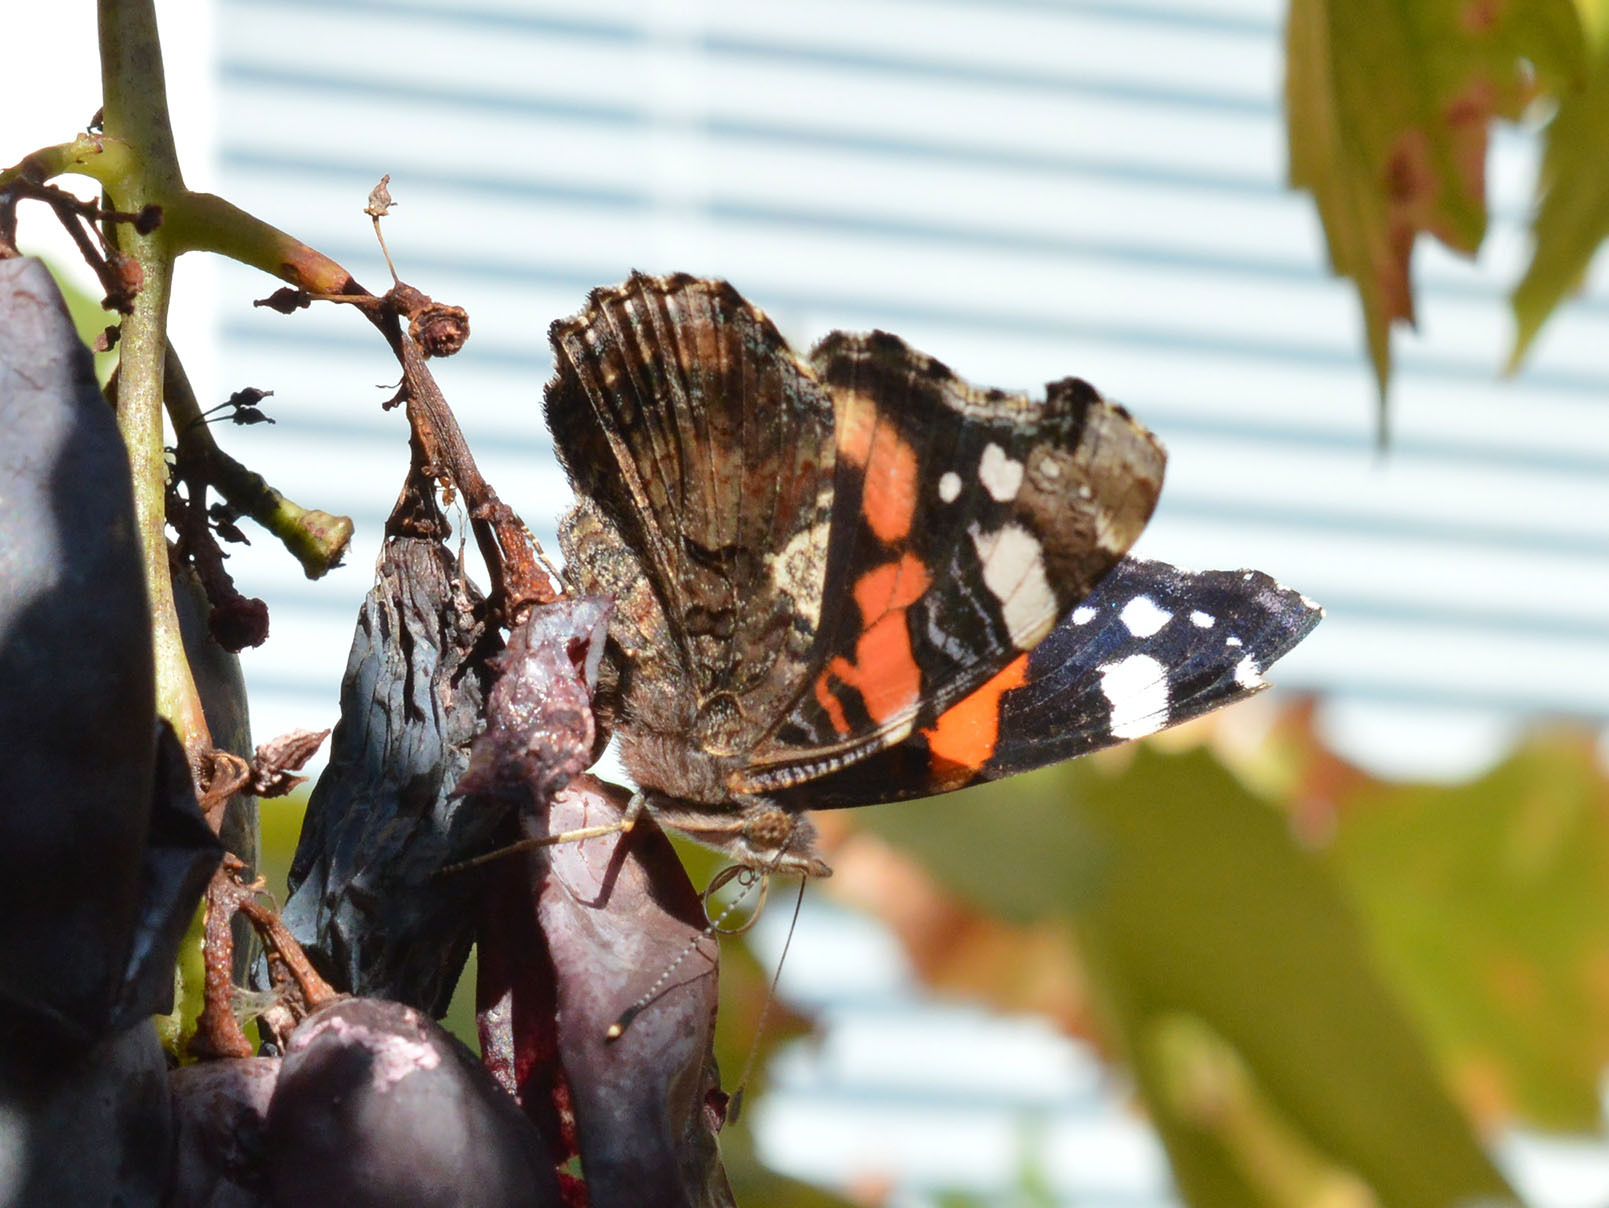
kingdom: Animalia
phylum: Arthropoda
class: Insecta
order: Lepidoptera
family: Nymphalidae
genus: Vanessa
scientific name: Vanessa atalanta
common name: Red admiral
